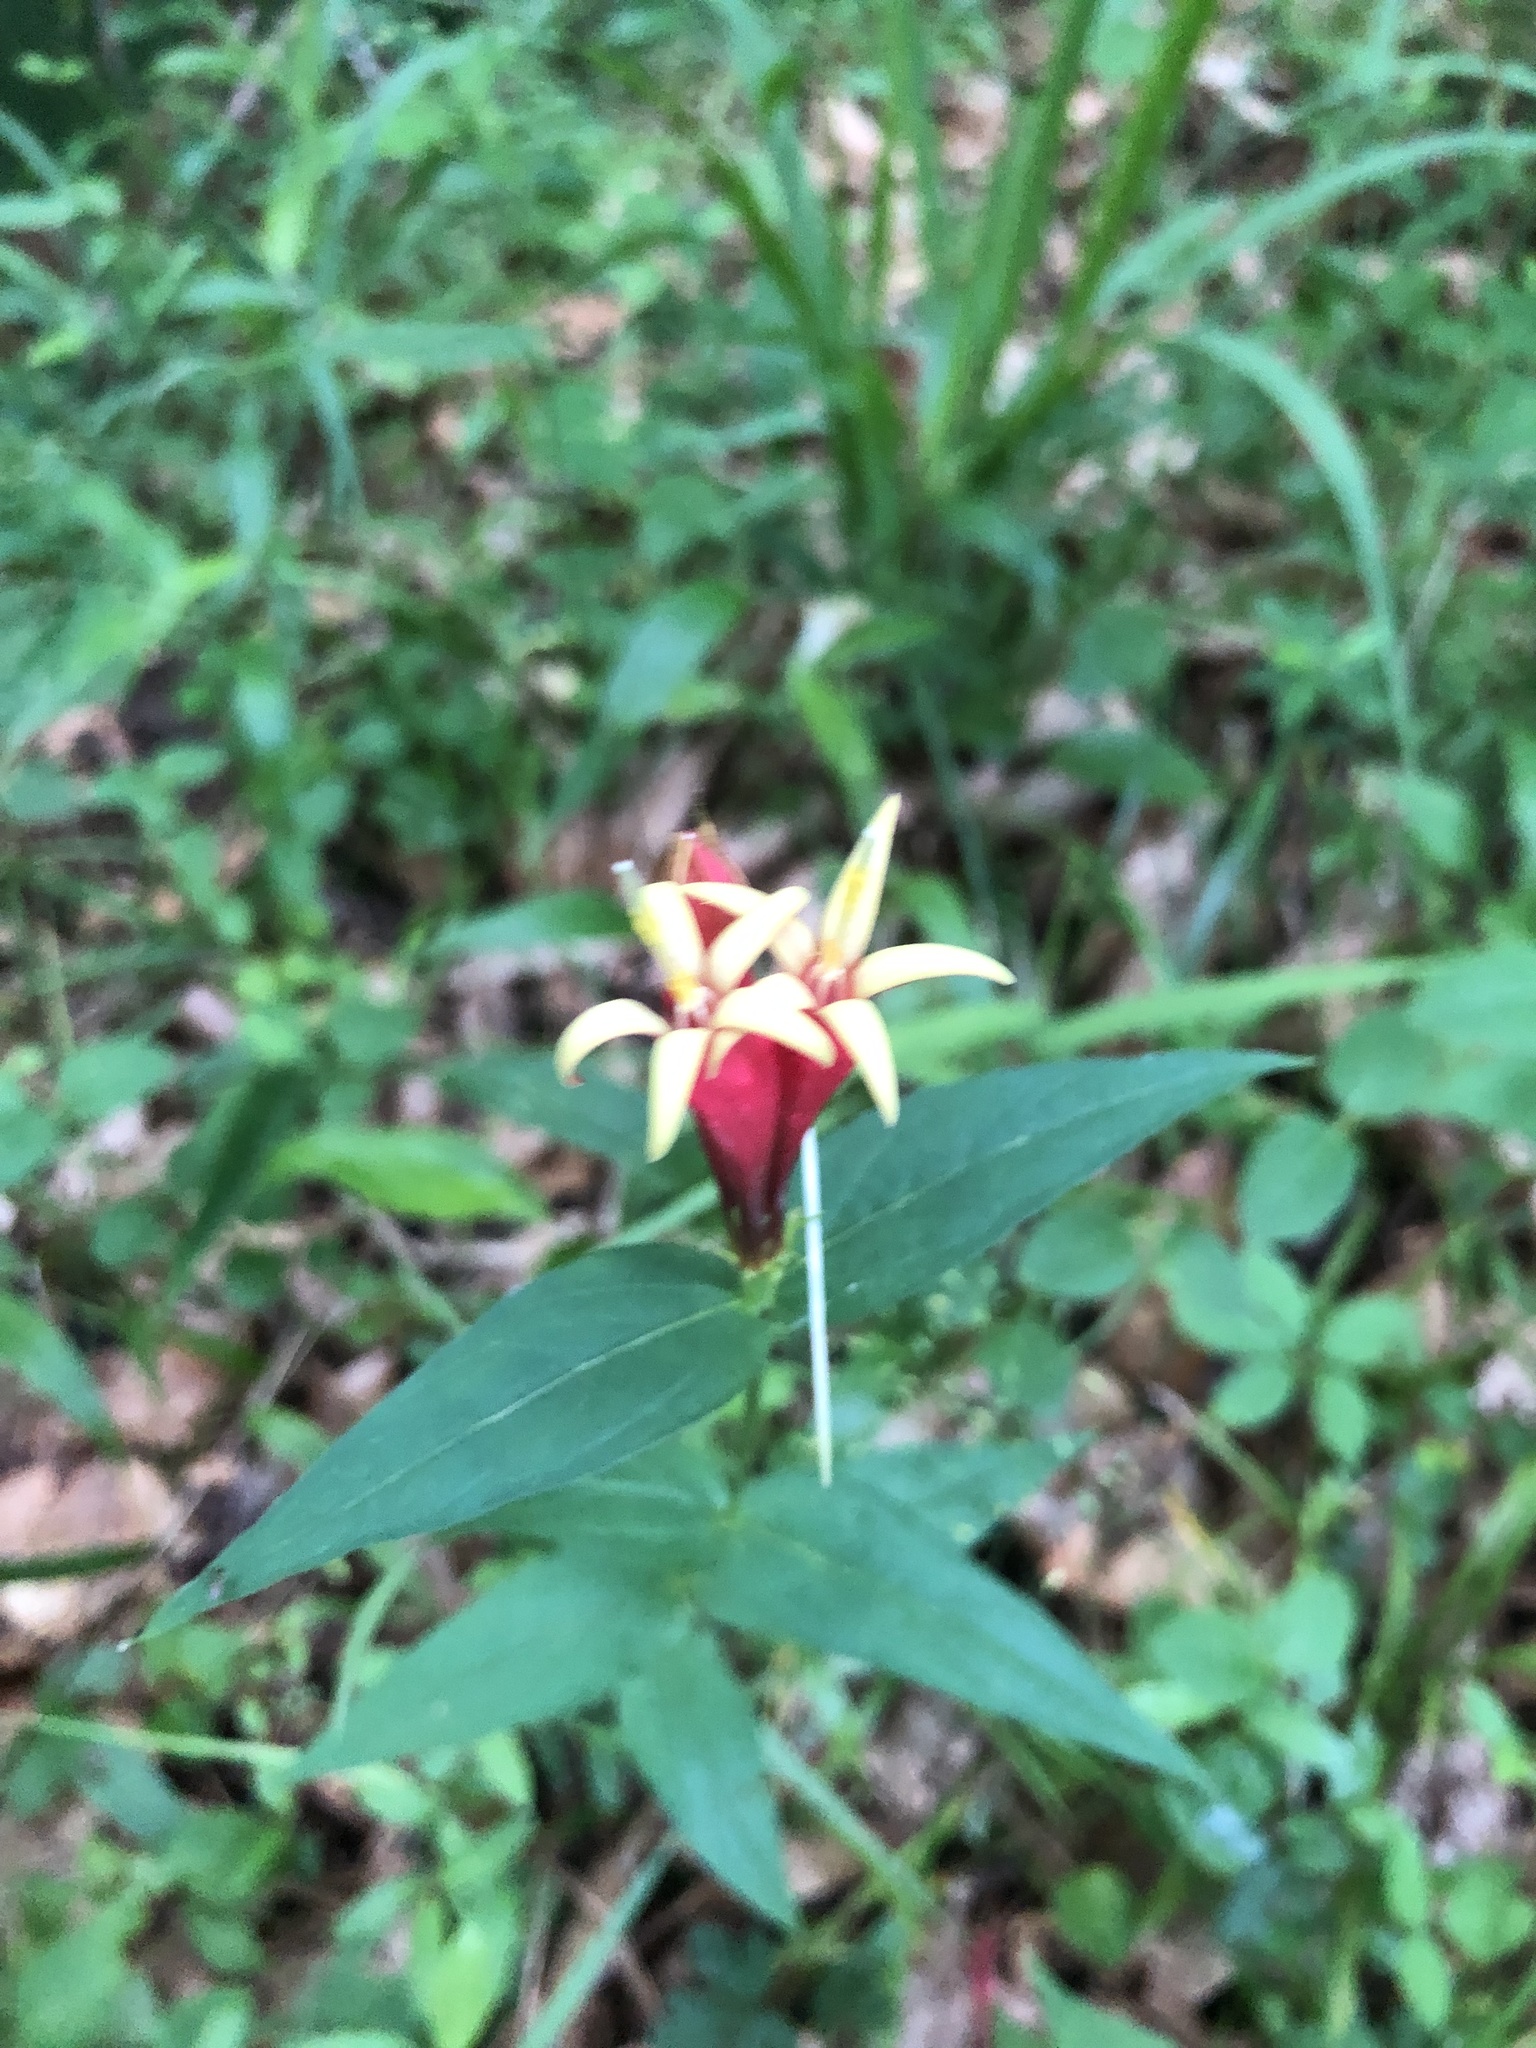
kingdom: Plantae
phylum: Tracheophyta
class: Magnoliopsida
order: Gentianales
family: Loganiaceae
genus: Spigelia
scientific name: Spigelia marilandica
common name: Indian-pink
